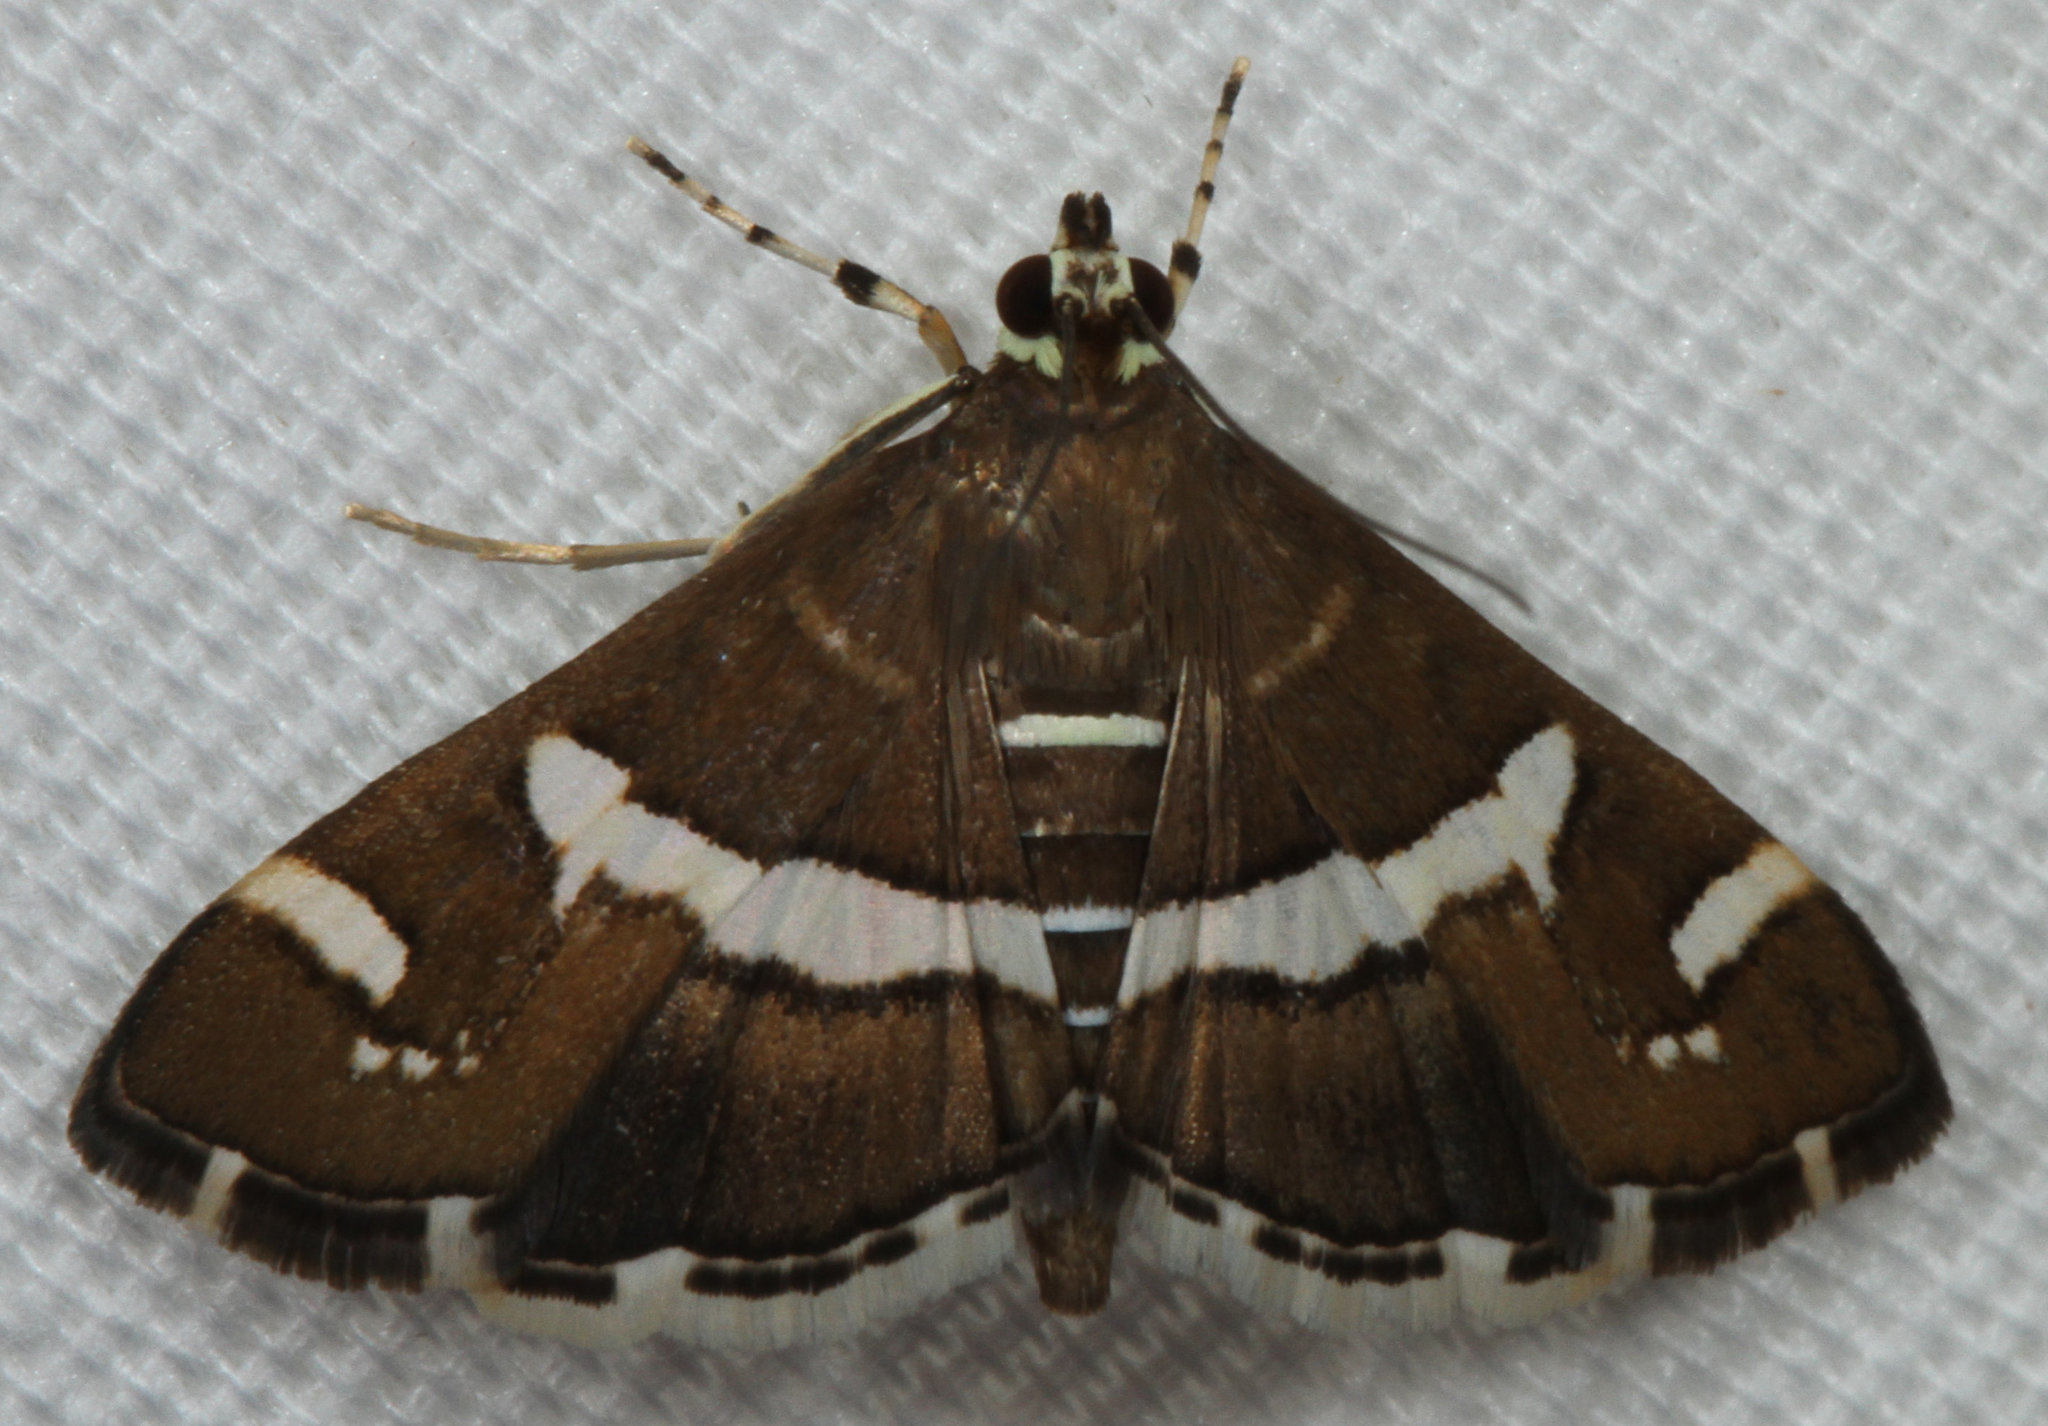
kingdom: Animalia
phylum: Arthropoda
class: Insecta
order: Lepidoptera
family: Crambidae
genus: Spoladea
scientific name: Spoladea recurvalis
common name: Beet webworm moth
